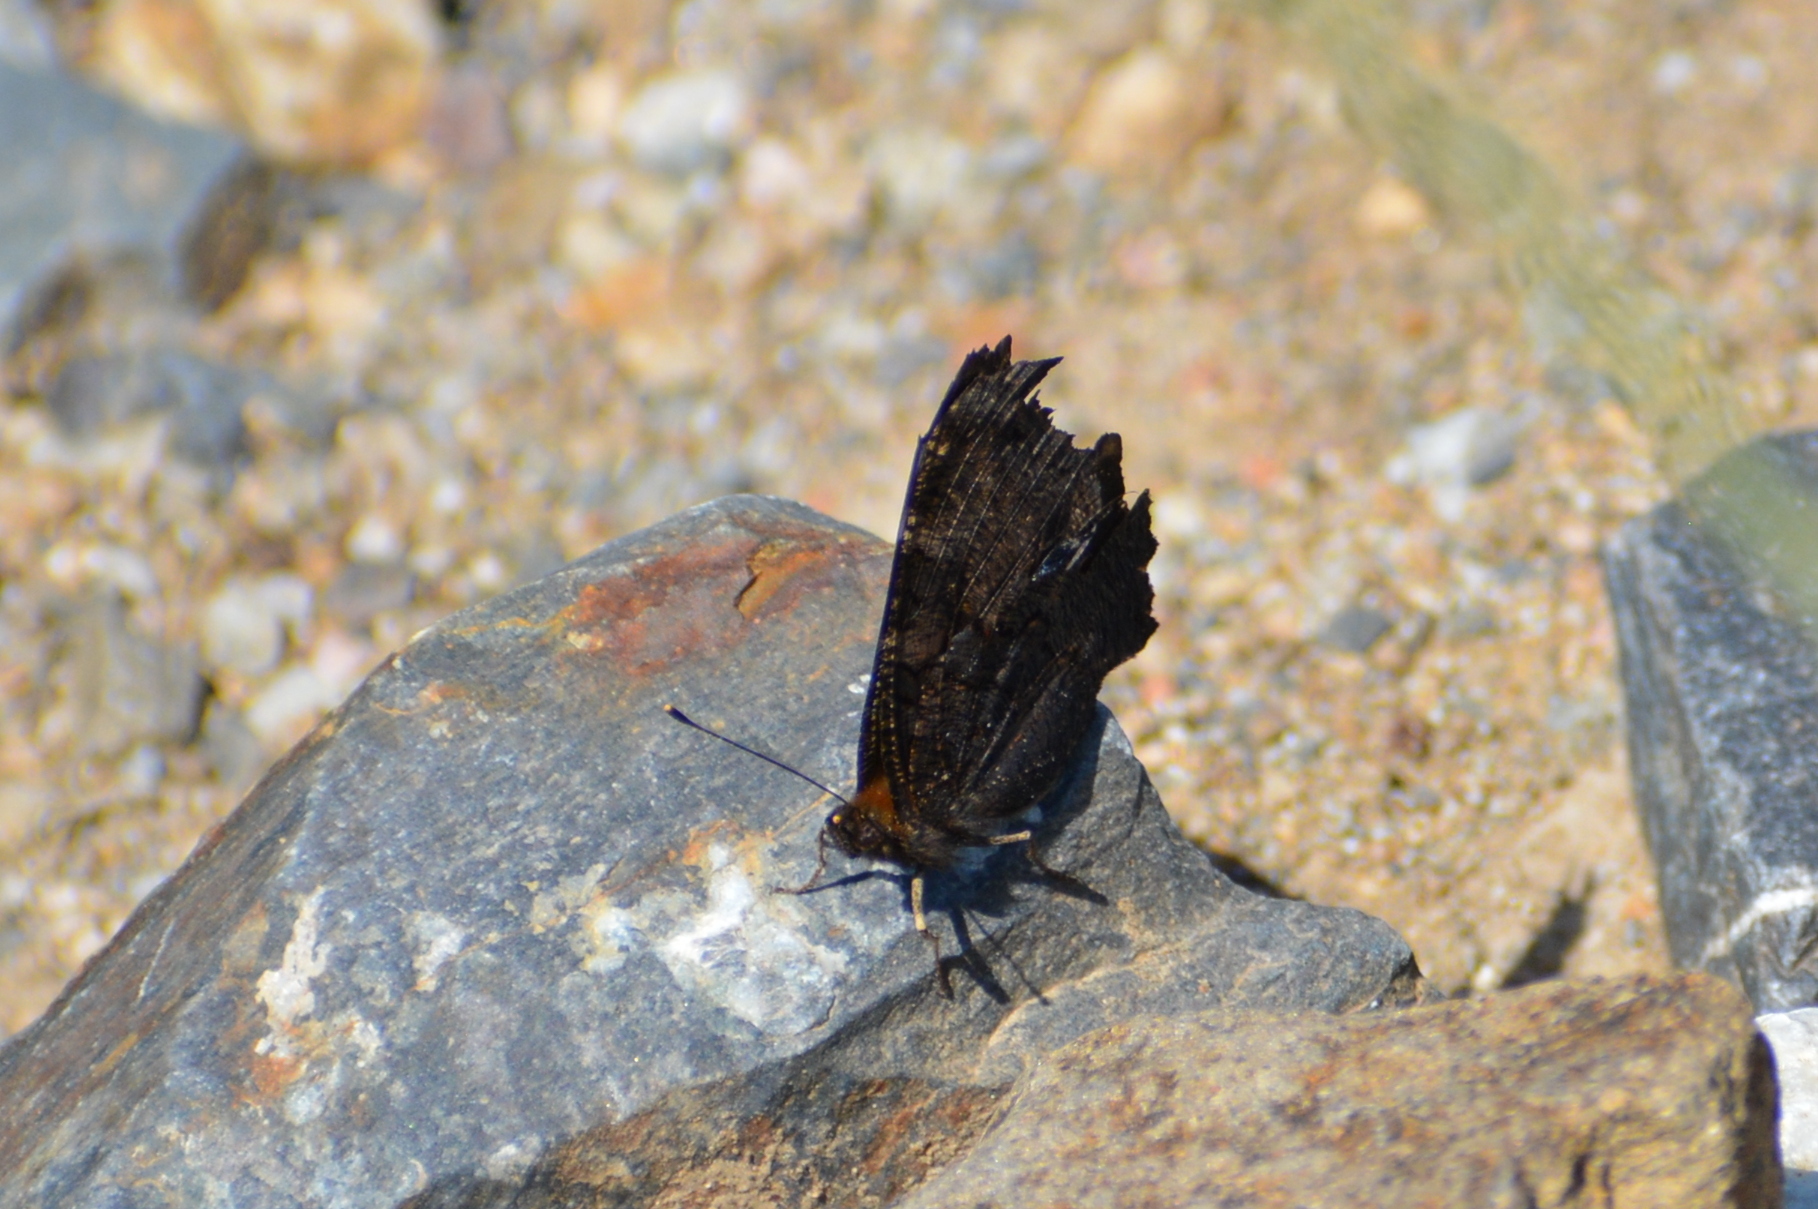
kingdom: Animalia
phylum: Arthropoda
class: Insecta
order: Lepidoptera
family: Nymphalidae
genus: Aglais
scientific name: Aglais io
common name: Peacock
